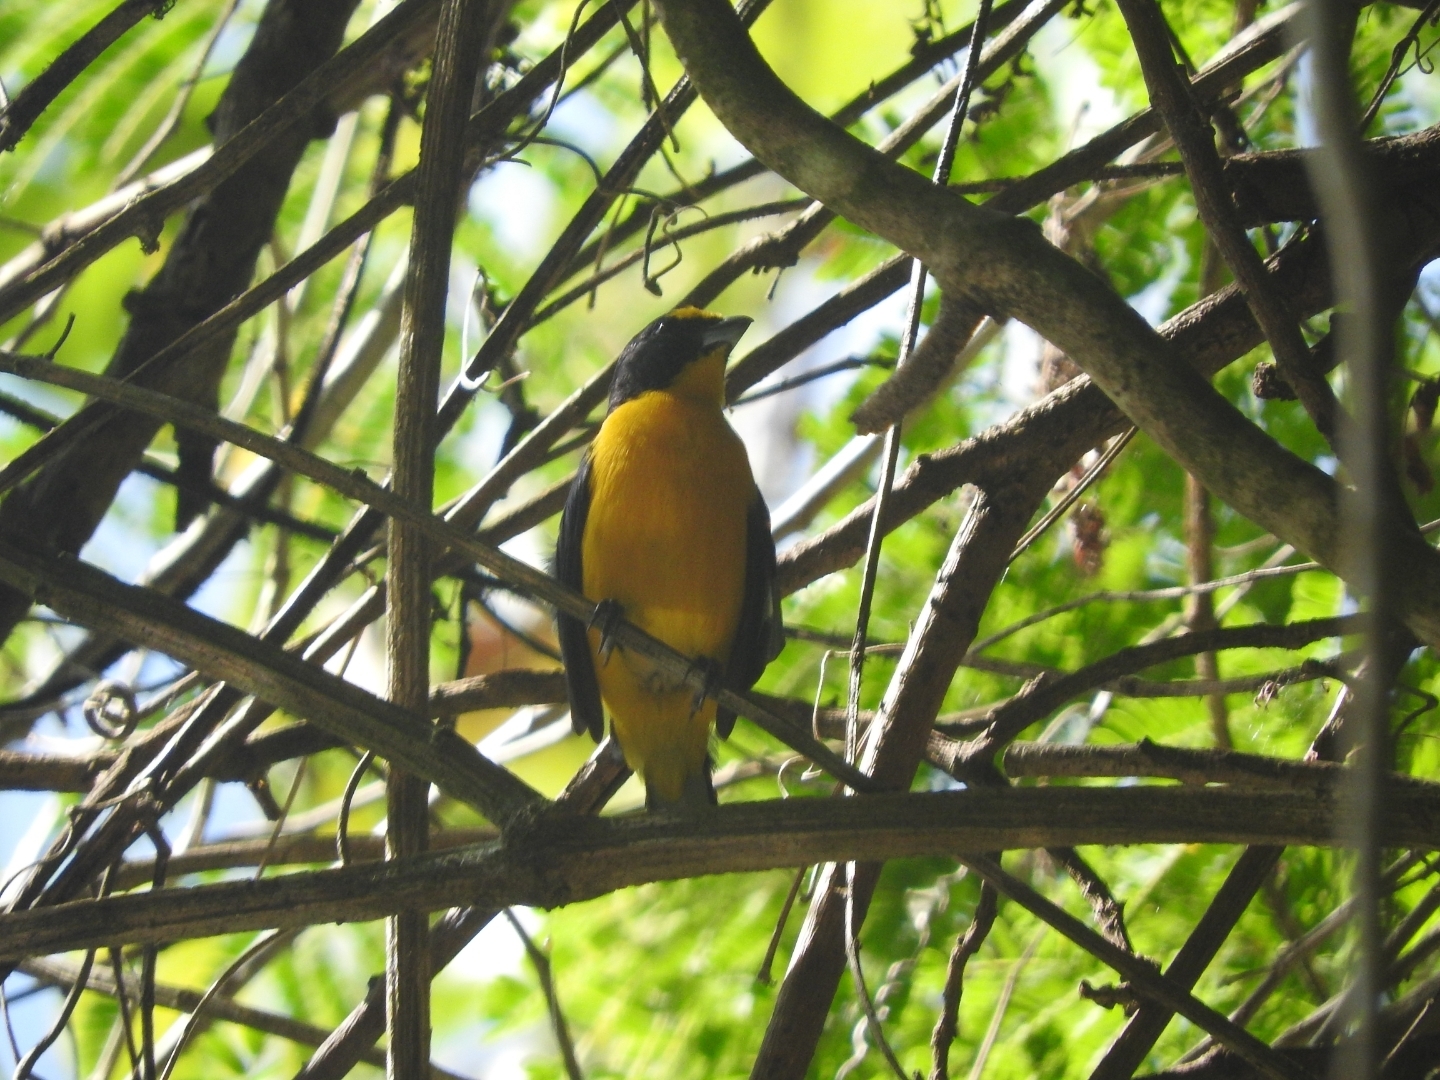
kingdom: Animalia
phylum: Chordata
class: Aves
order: Passeriformes
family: Fringillidae
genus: Euphonia
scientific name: Euphonia hirundinacea
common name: Yellow-throated euphonia
